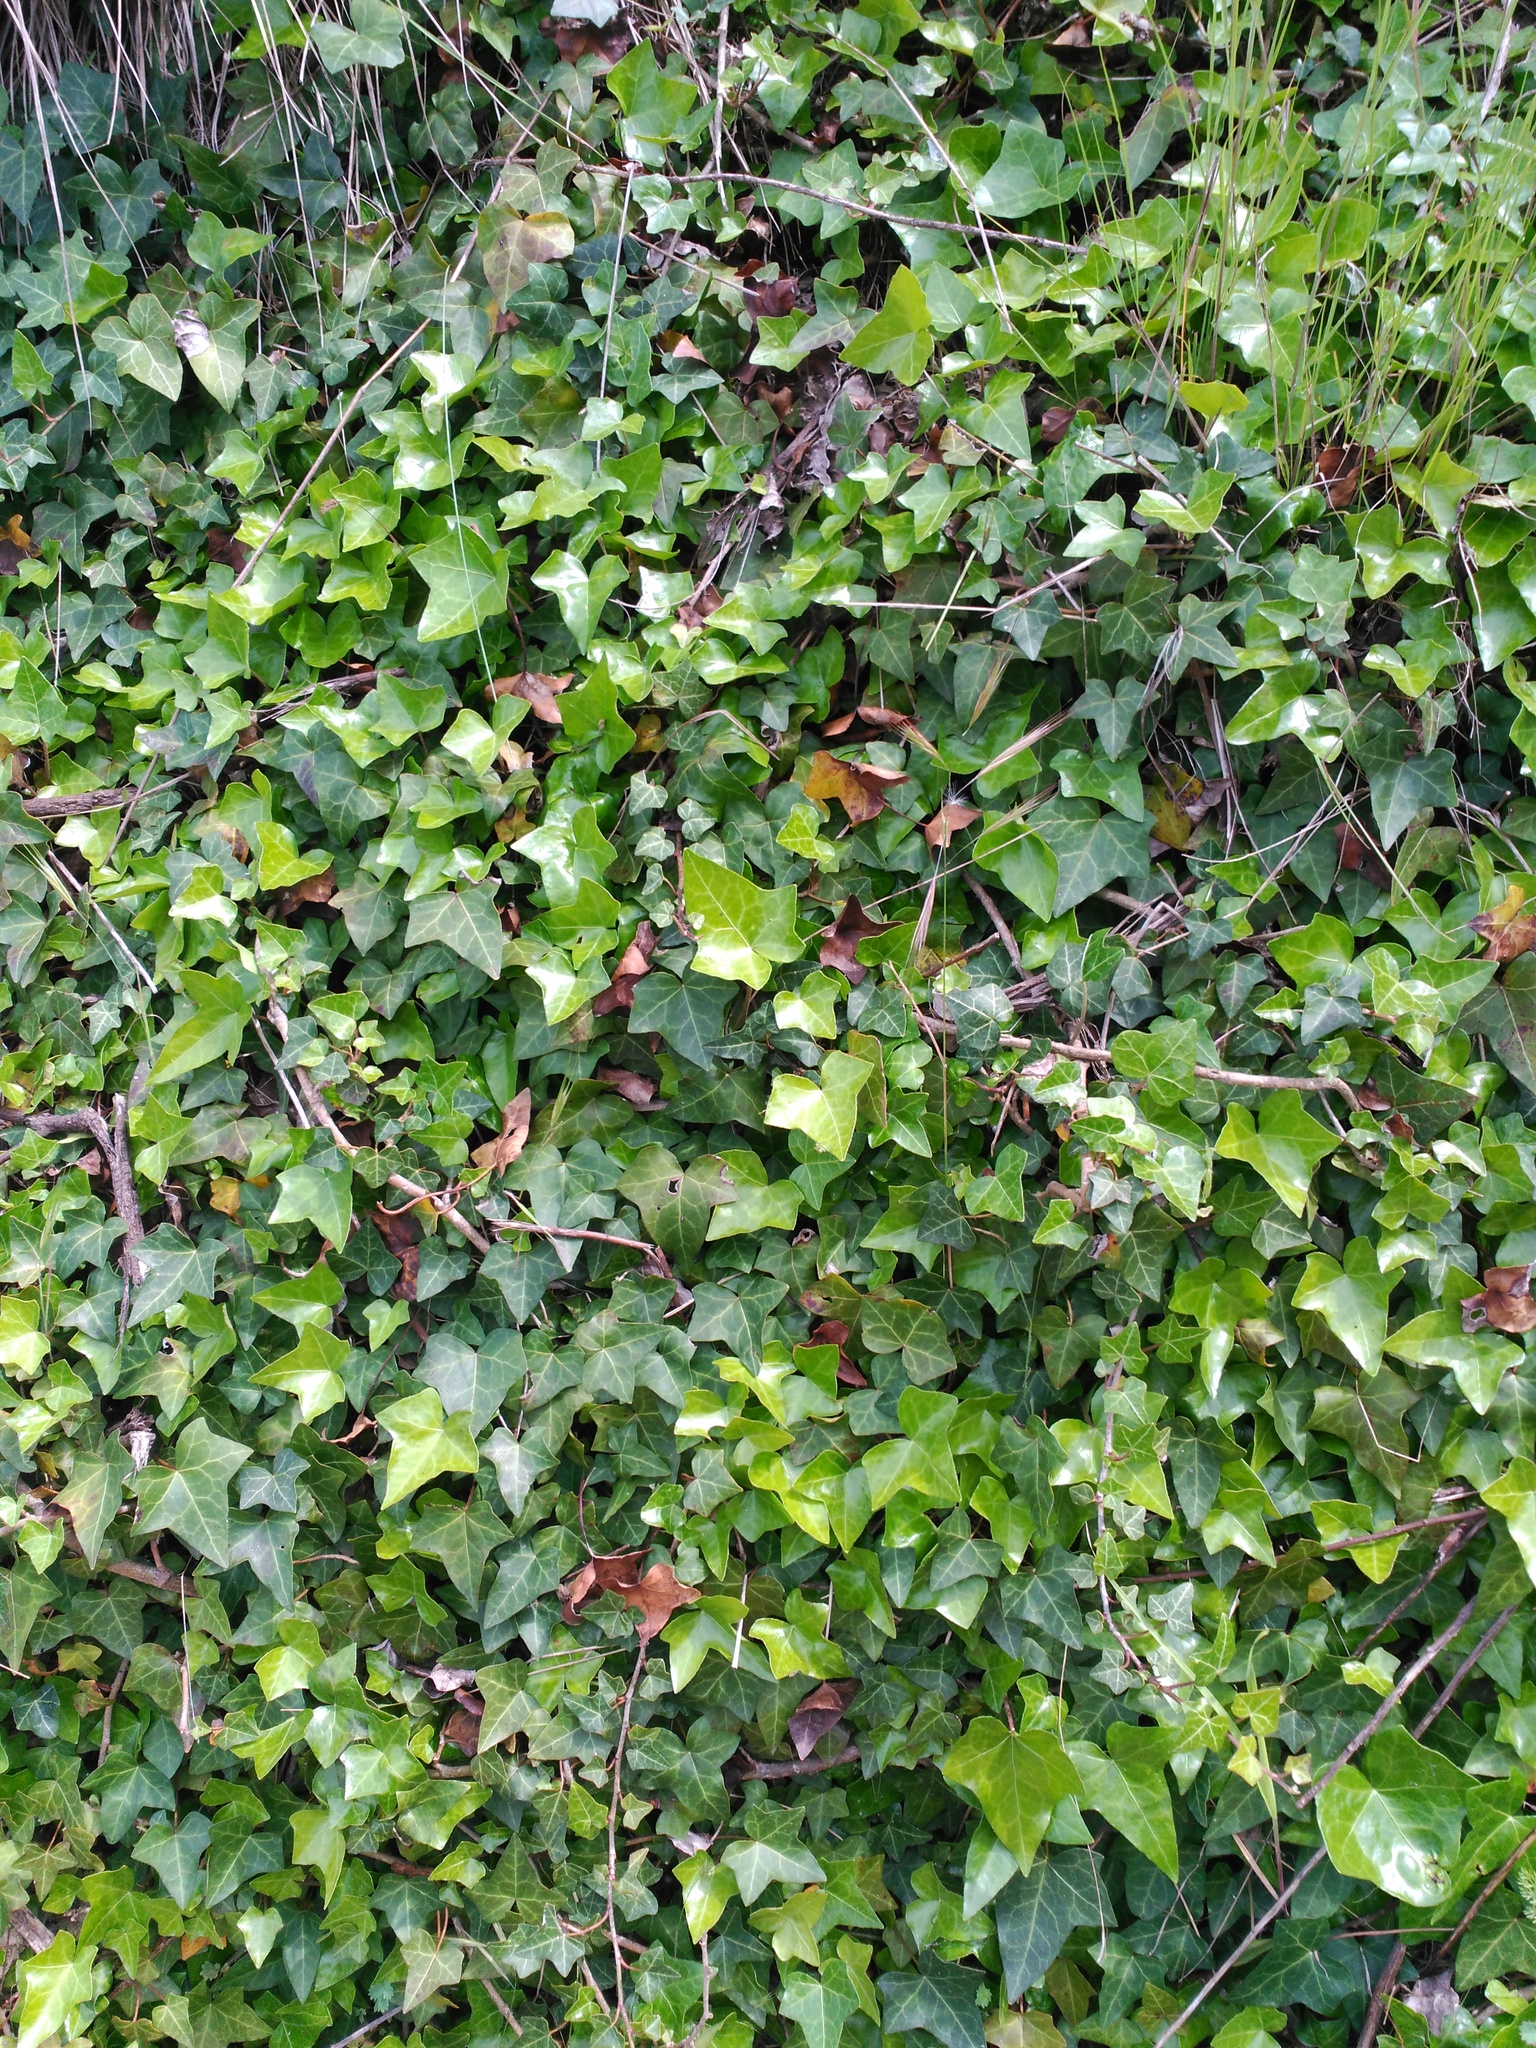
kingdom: Plantae
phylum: Tracheophyta
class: Magnoliopsida
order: Apiales
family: Araliaceae
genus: Hedera
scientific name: Hedera helix
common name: Ivy
